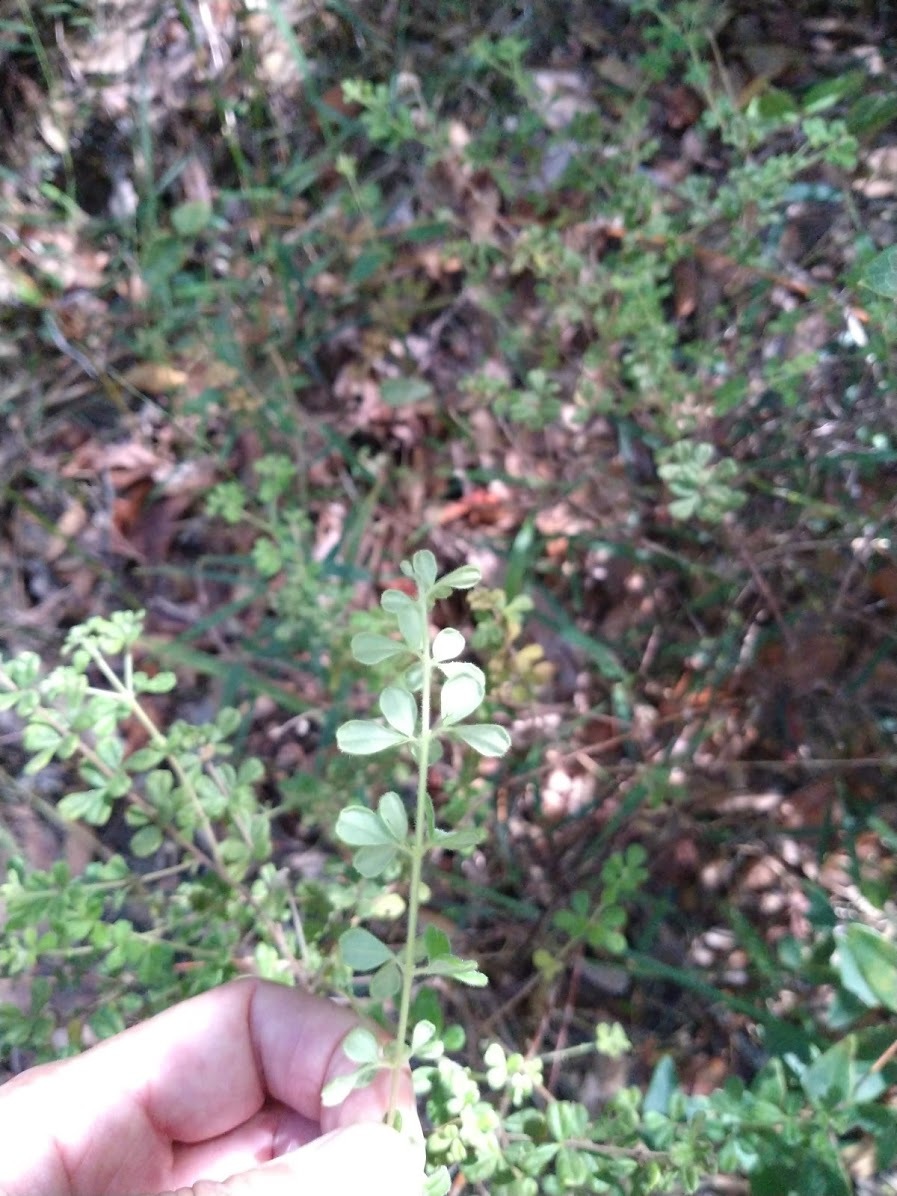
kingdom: Plantae
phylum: Tracheophyta
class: Magnoliopsida
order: Sapindales
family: Rutaceae
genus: Zieria
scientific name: Zieria minutiflora
